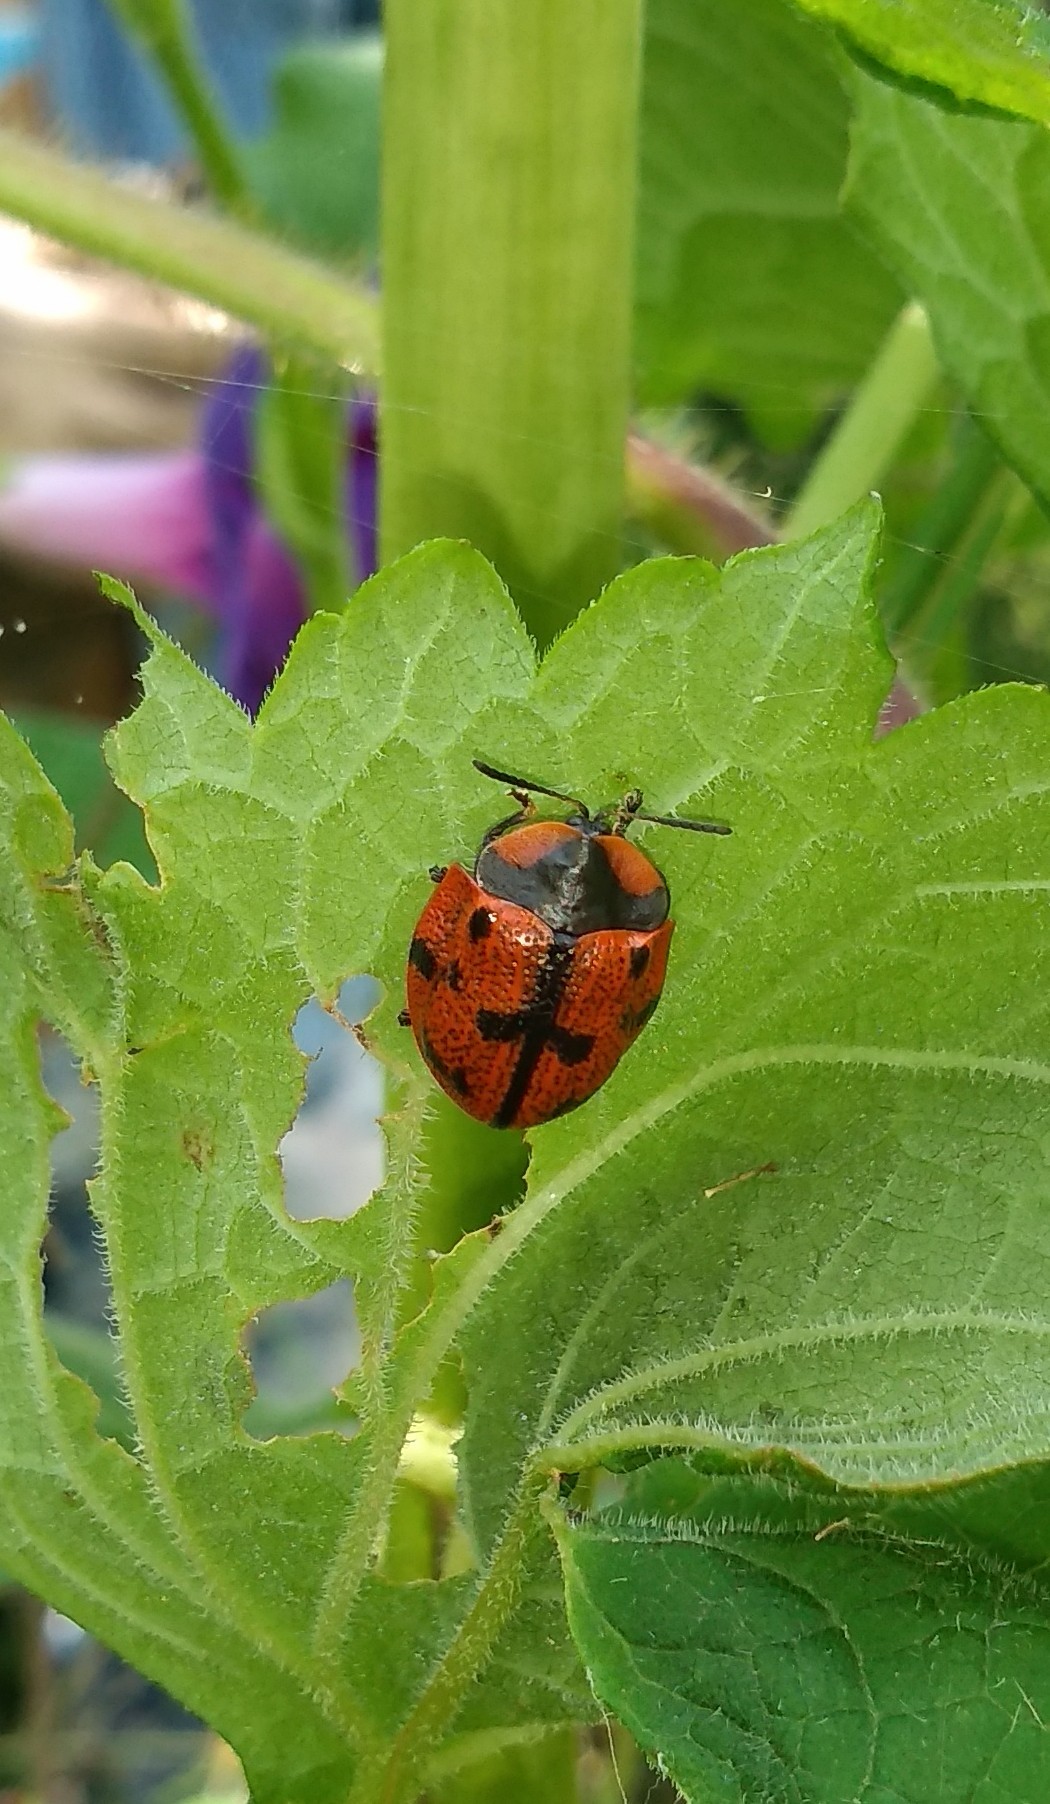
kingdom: Animalia
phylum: Arthropoda
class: Insecta
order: Coleoptera
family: Chrysomelidae
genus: Botanochara
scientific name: Botanochara invasa
